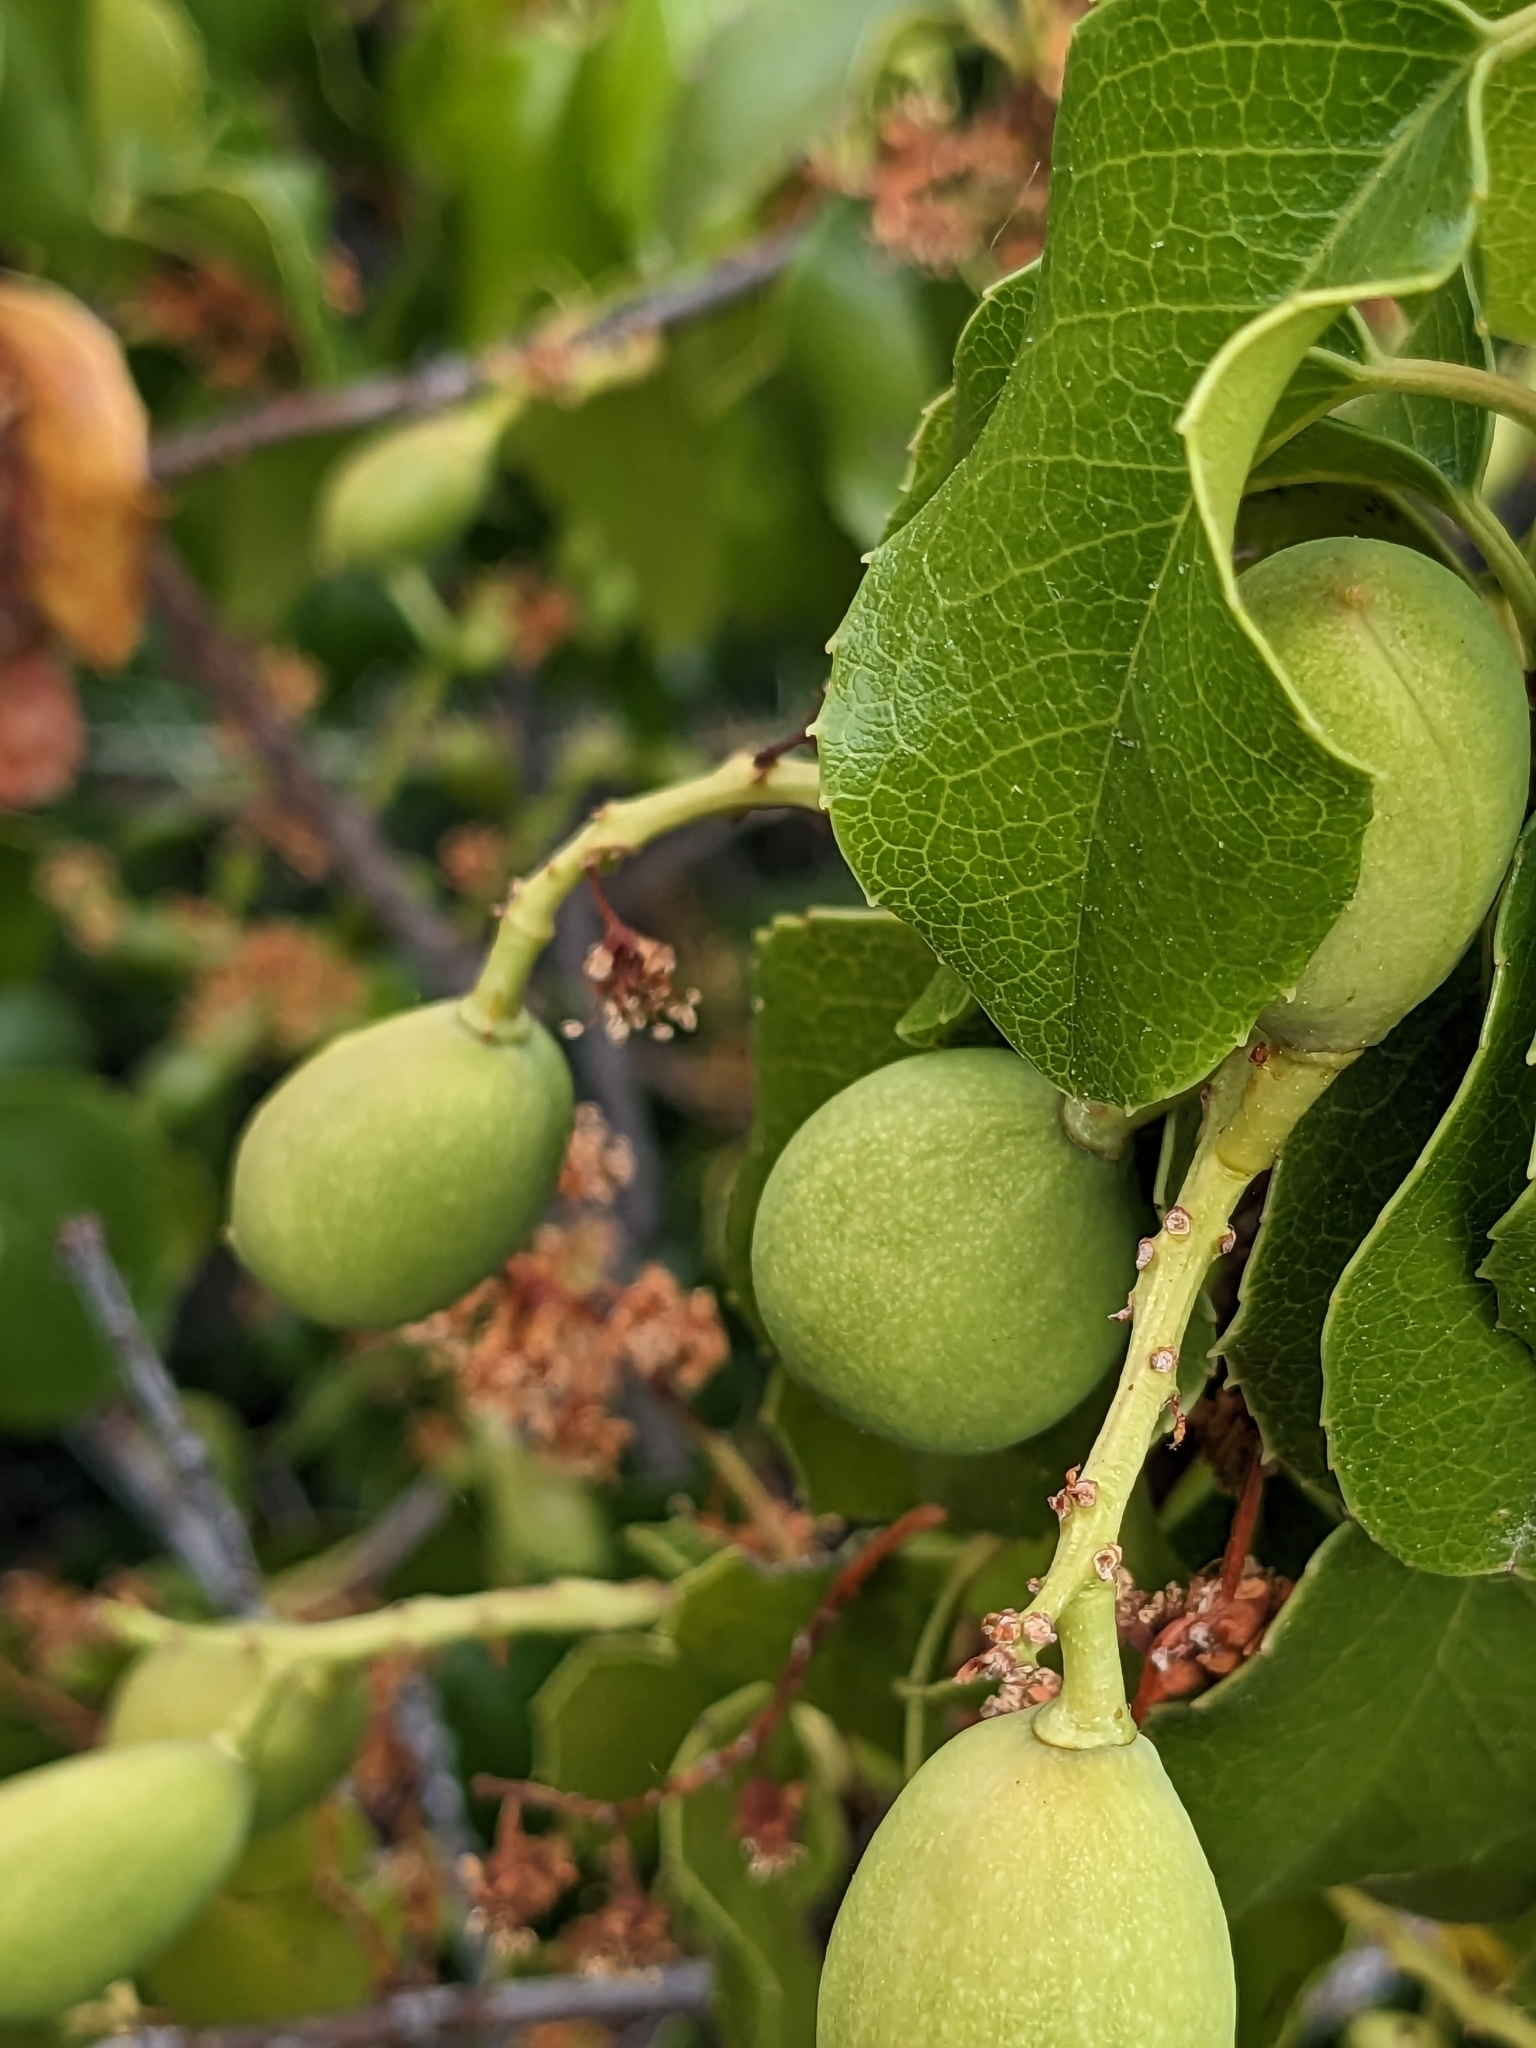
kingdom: Plantae
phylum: Tracheophyta
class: Magnoliopsida
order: Rosales
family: Rosaceae
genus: Prunus
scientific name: Prunus ilicifolia
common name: Hollyleaf cherry
